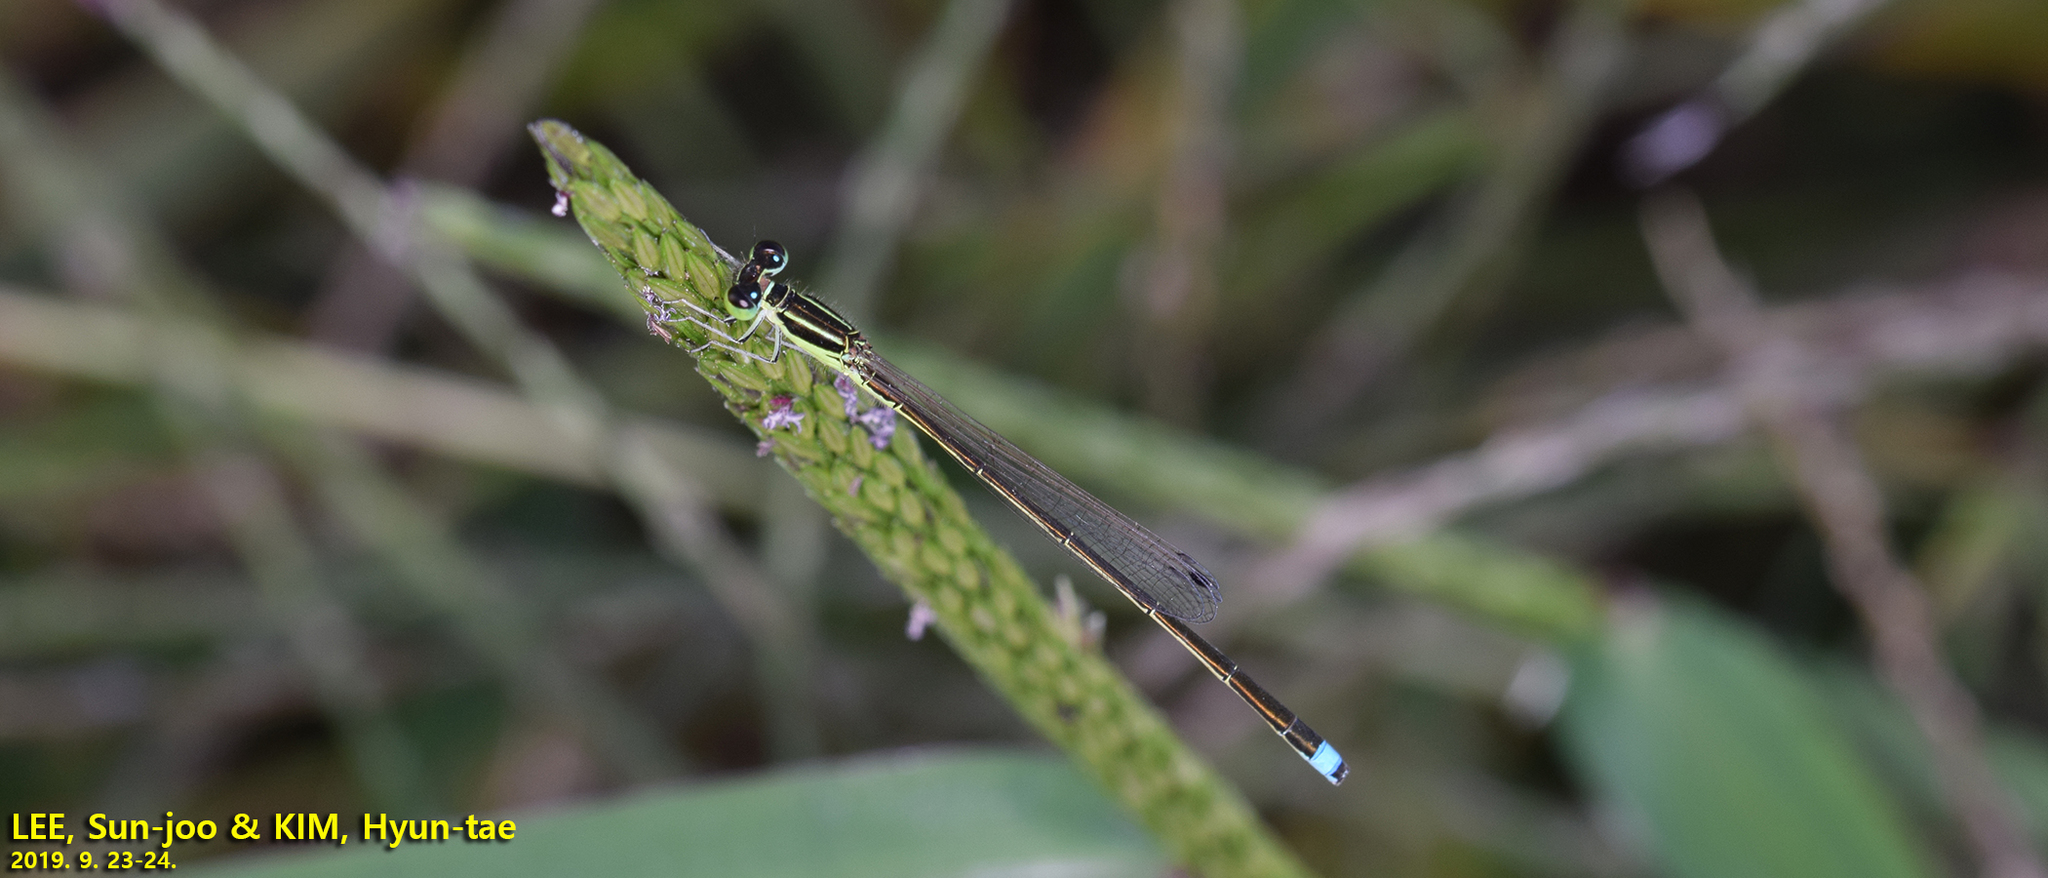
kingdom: Animalia
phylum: Arthropoda
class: Insecta
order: Odonata
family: Coenagrionidae
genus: Ischnura
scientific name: Ischnura asiatica
